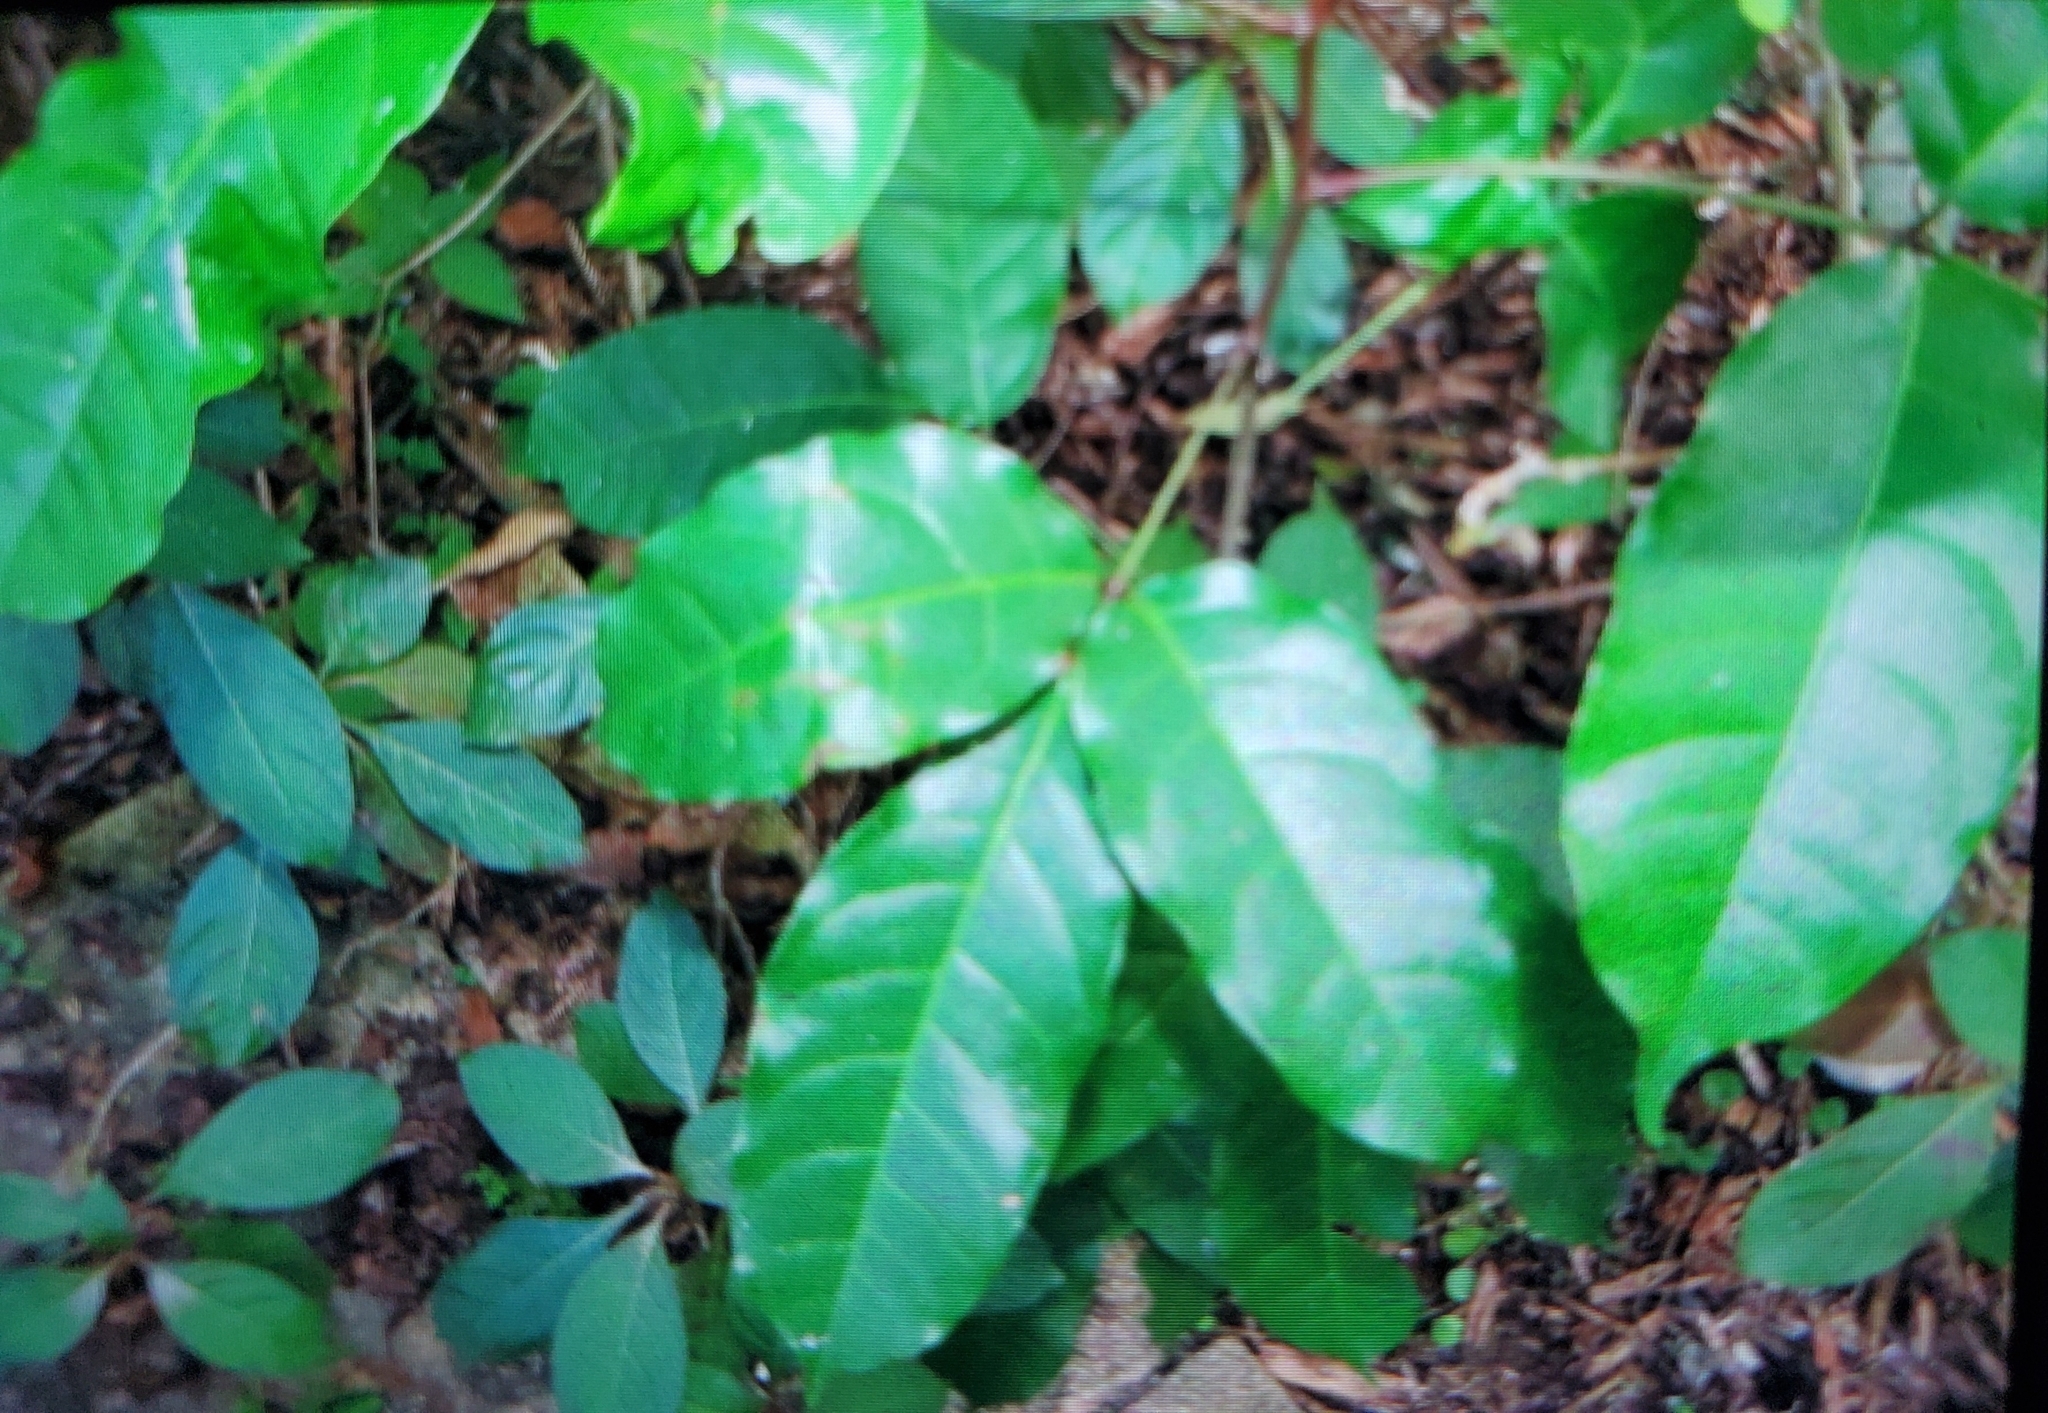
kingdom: Plantae
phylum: Tracheophyta
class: Magnoliopsida
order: Sapindales
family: Sapindaceae
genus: Cupaniopsis
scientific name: Cupaniopsis anacardioides
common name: Carrotwood
